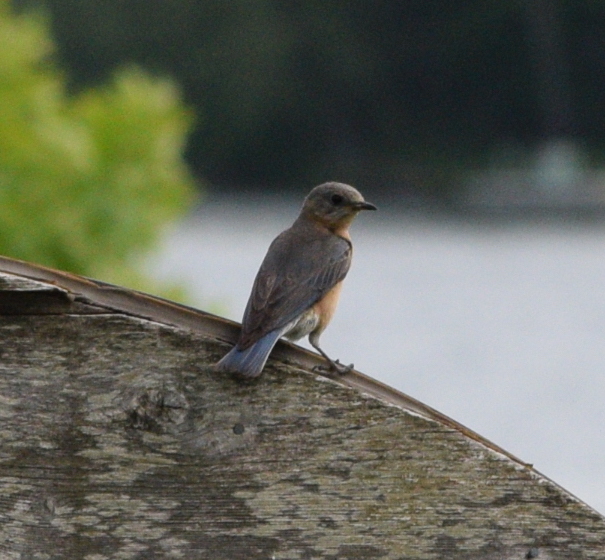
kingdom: Animalia
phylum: Chordata
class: Aves
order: Passeriformes
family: Turdidae
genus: Sialia
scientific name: Sialia sialis
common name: Eastern bluebird
